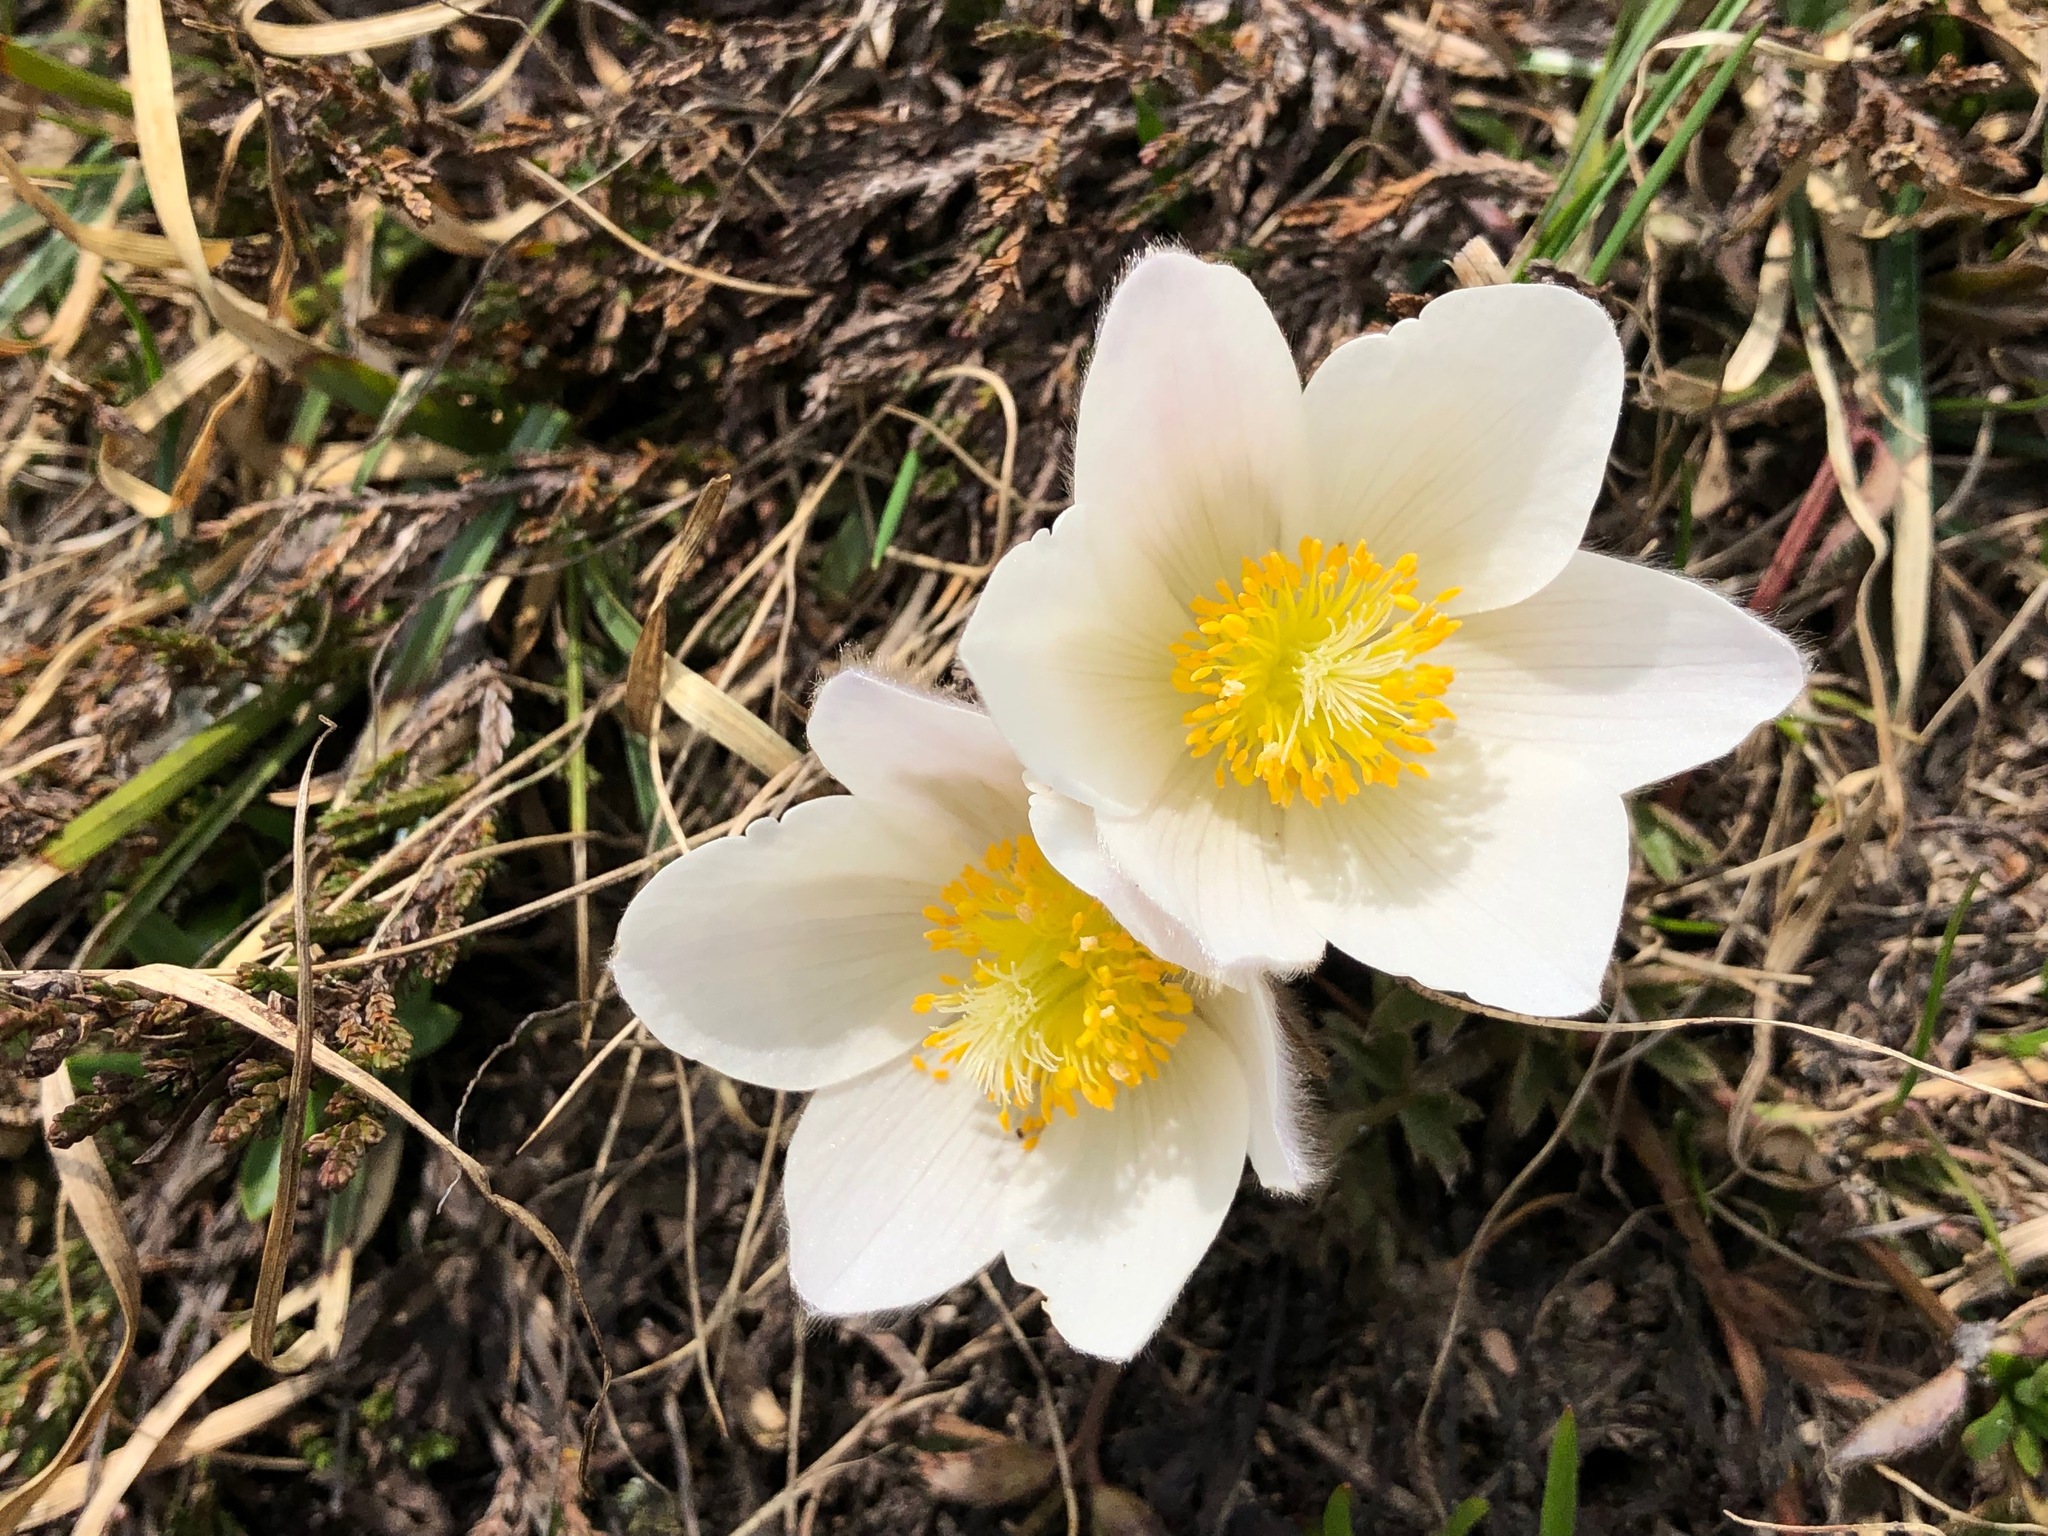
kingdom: Plantae
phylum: Tracheophyta
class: Magnoliopsida
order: Ranunculales
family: Ranunculaceae
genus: Pulsatilla
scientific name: Pulsatilla vernalis
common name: Spring pasque flower
